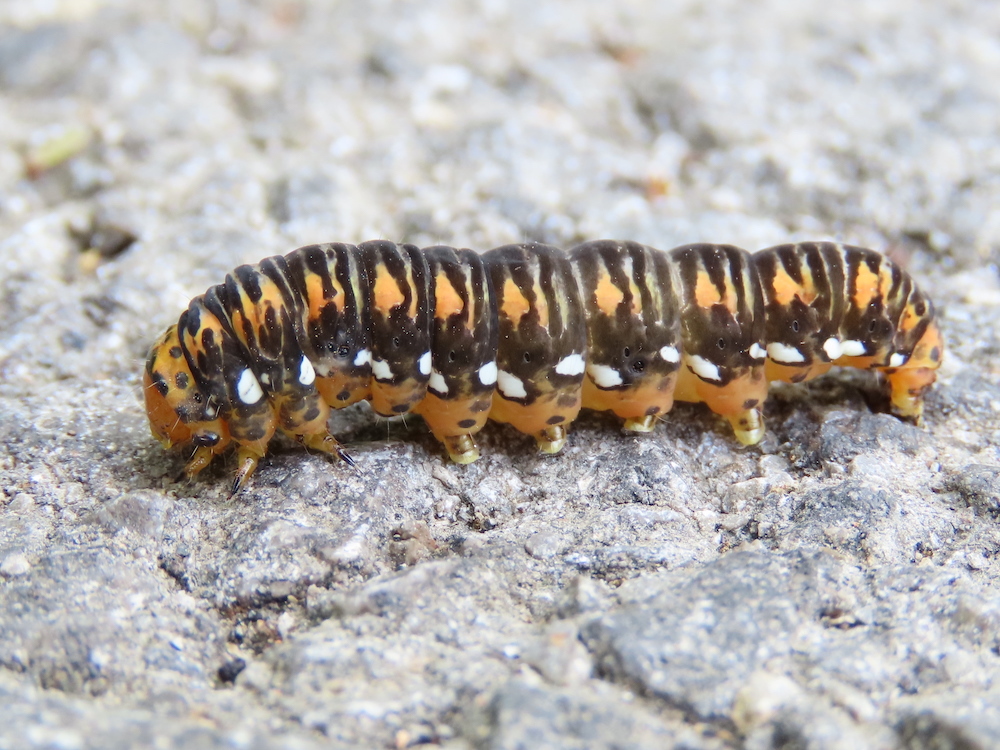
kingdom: Animalia
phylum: Arthropoda
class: Insecta
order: Lepidoptera
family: Noctuidae
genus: Basilodes
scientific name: Basilodes pepita
